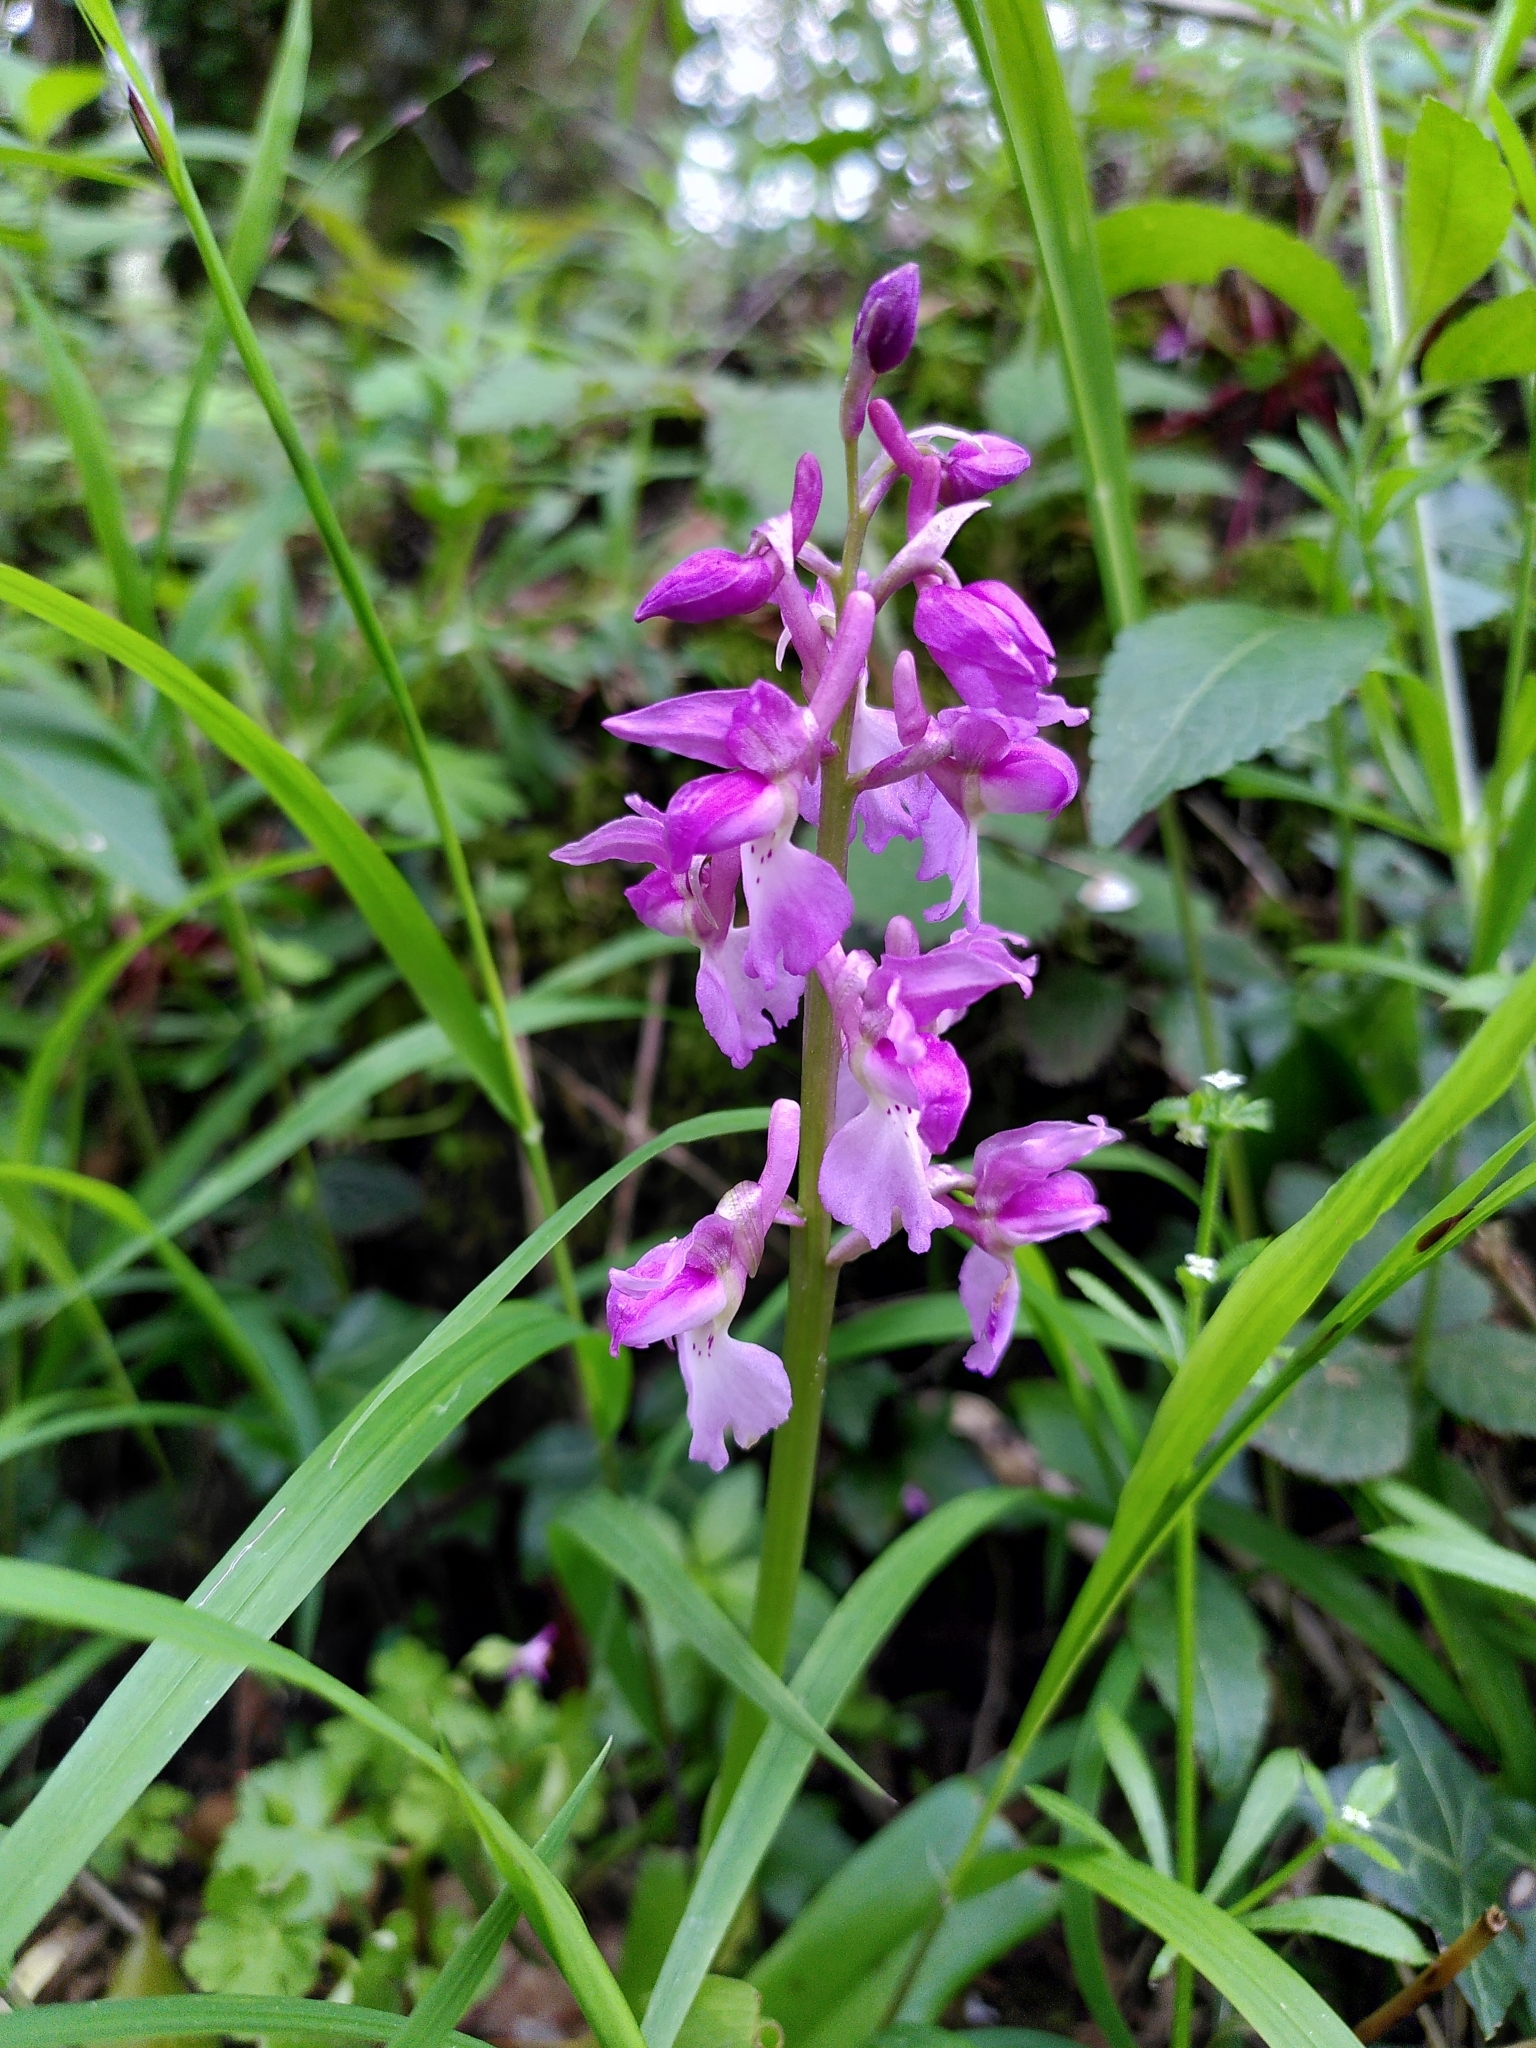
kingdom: Plantae
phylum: Tracheophyta
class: Liliopsida
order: Asparagales
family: Orchidaceae
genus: Orchis
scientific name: Orchis mascula
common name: Early-purple orchid
